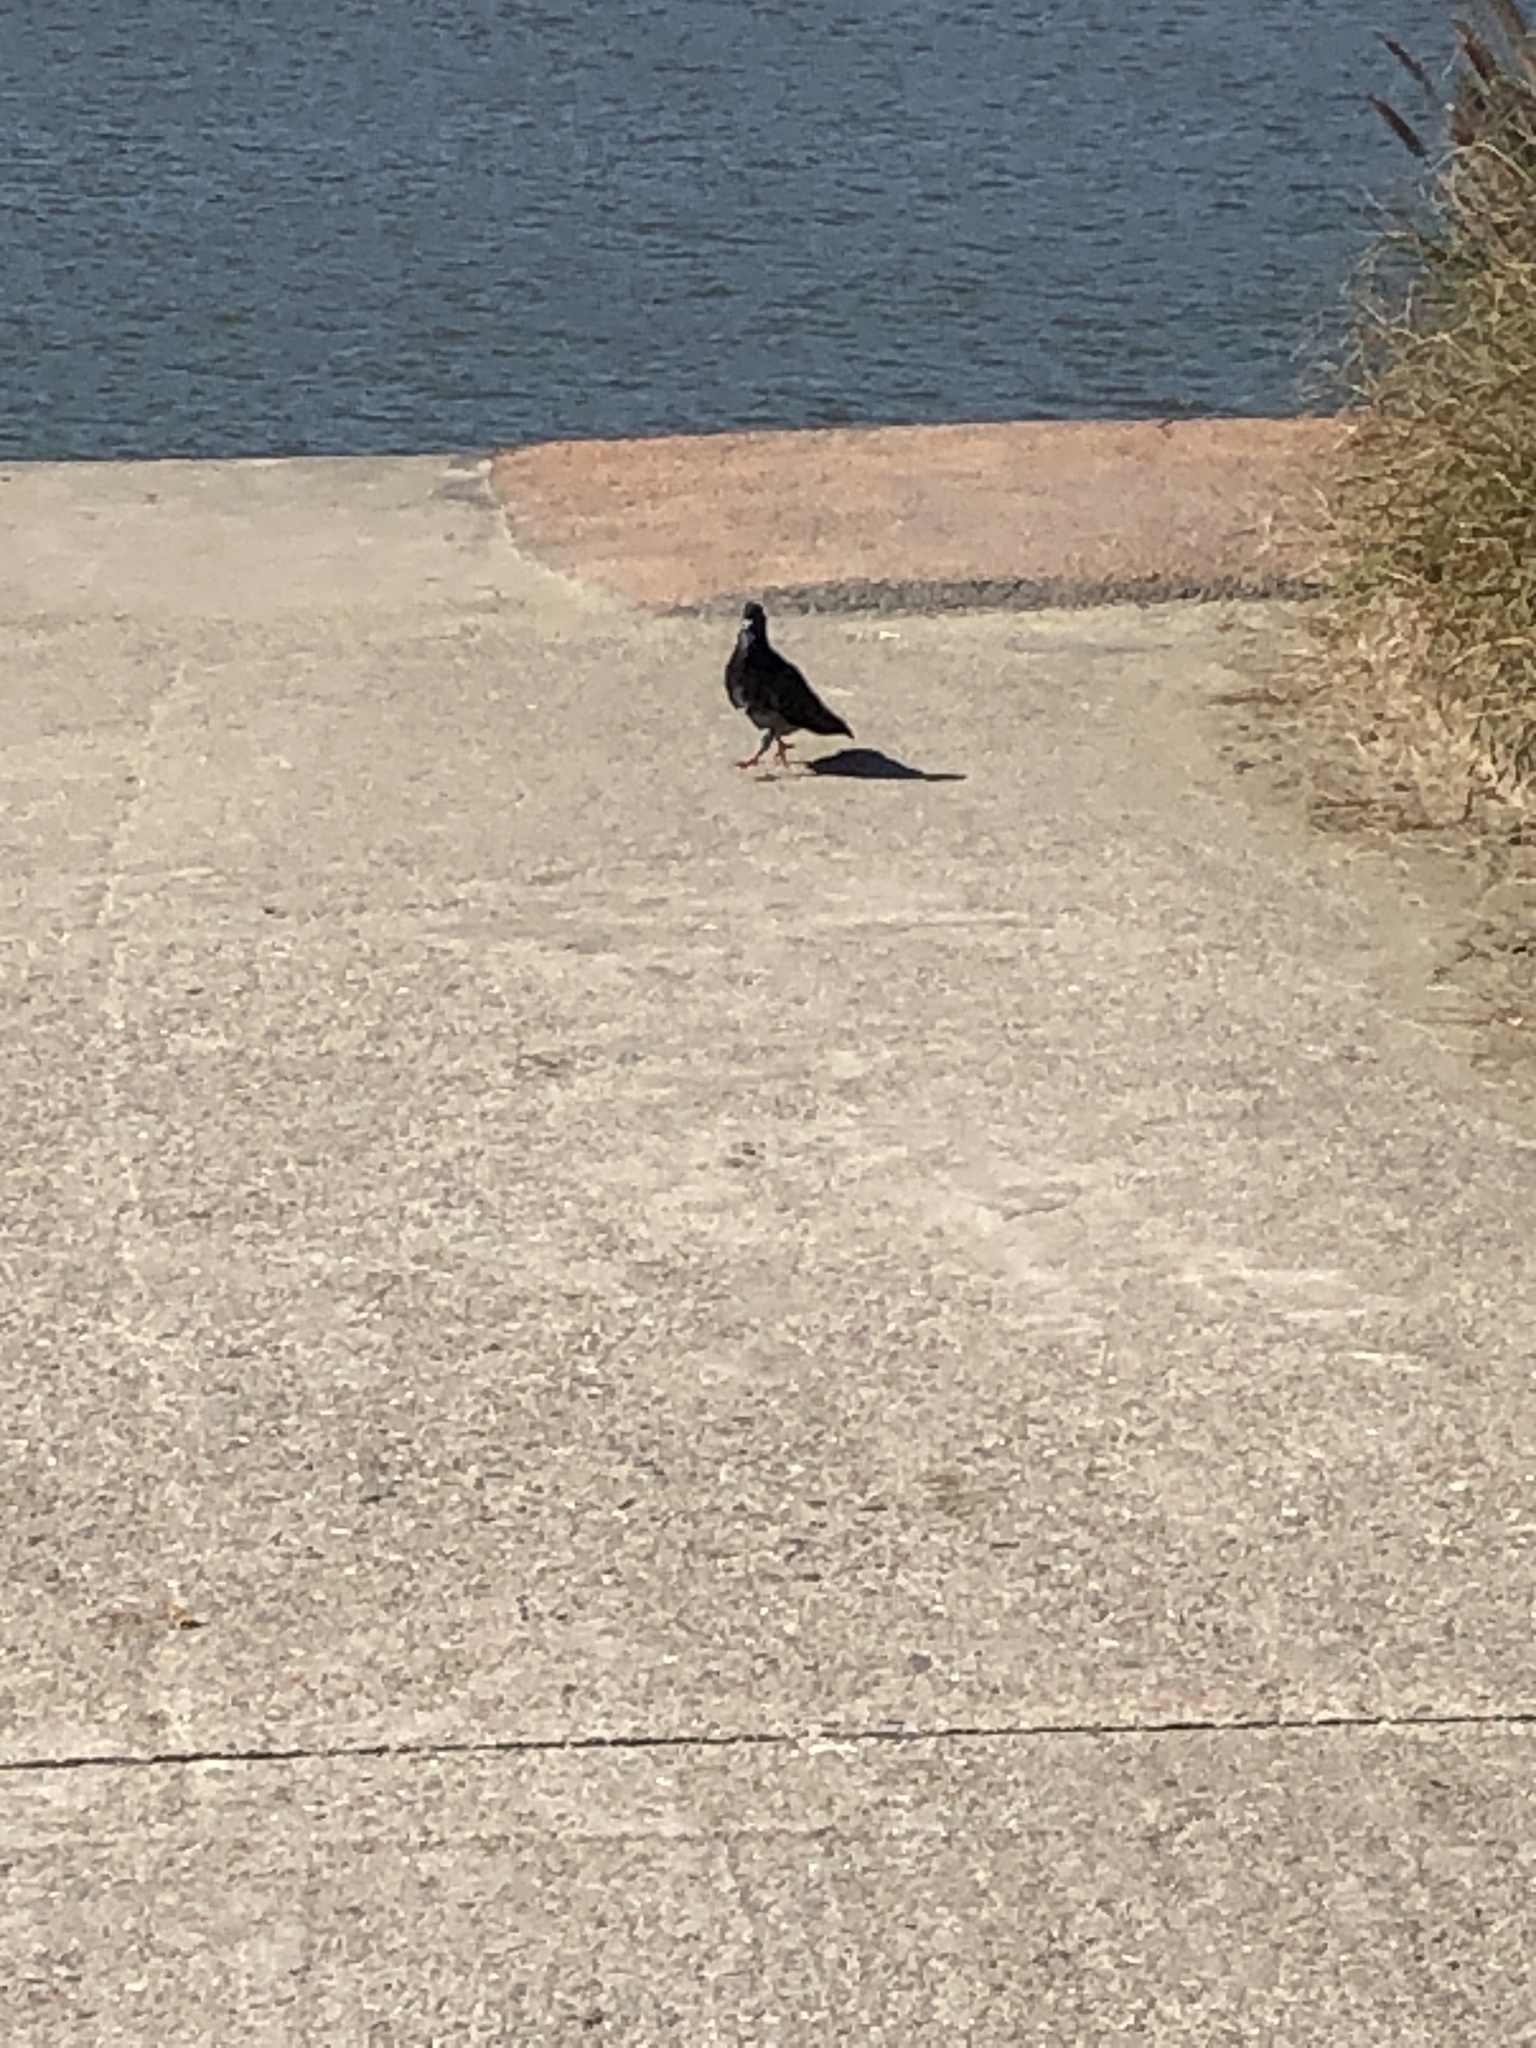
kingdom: Animalia
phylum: Chordata
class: Aves
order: Columbiformes
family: Columbidae
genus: Columba
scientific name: Columba livia
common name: Rock pigeon
